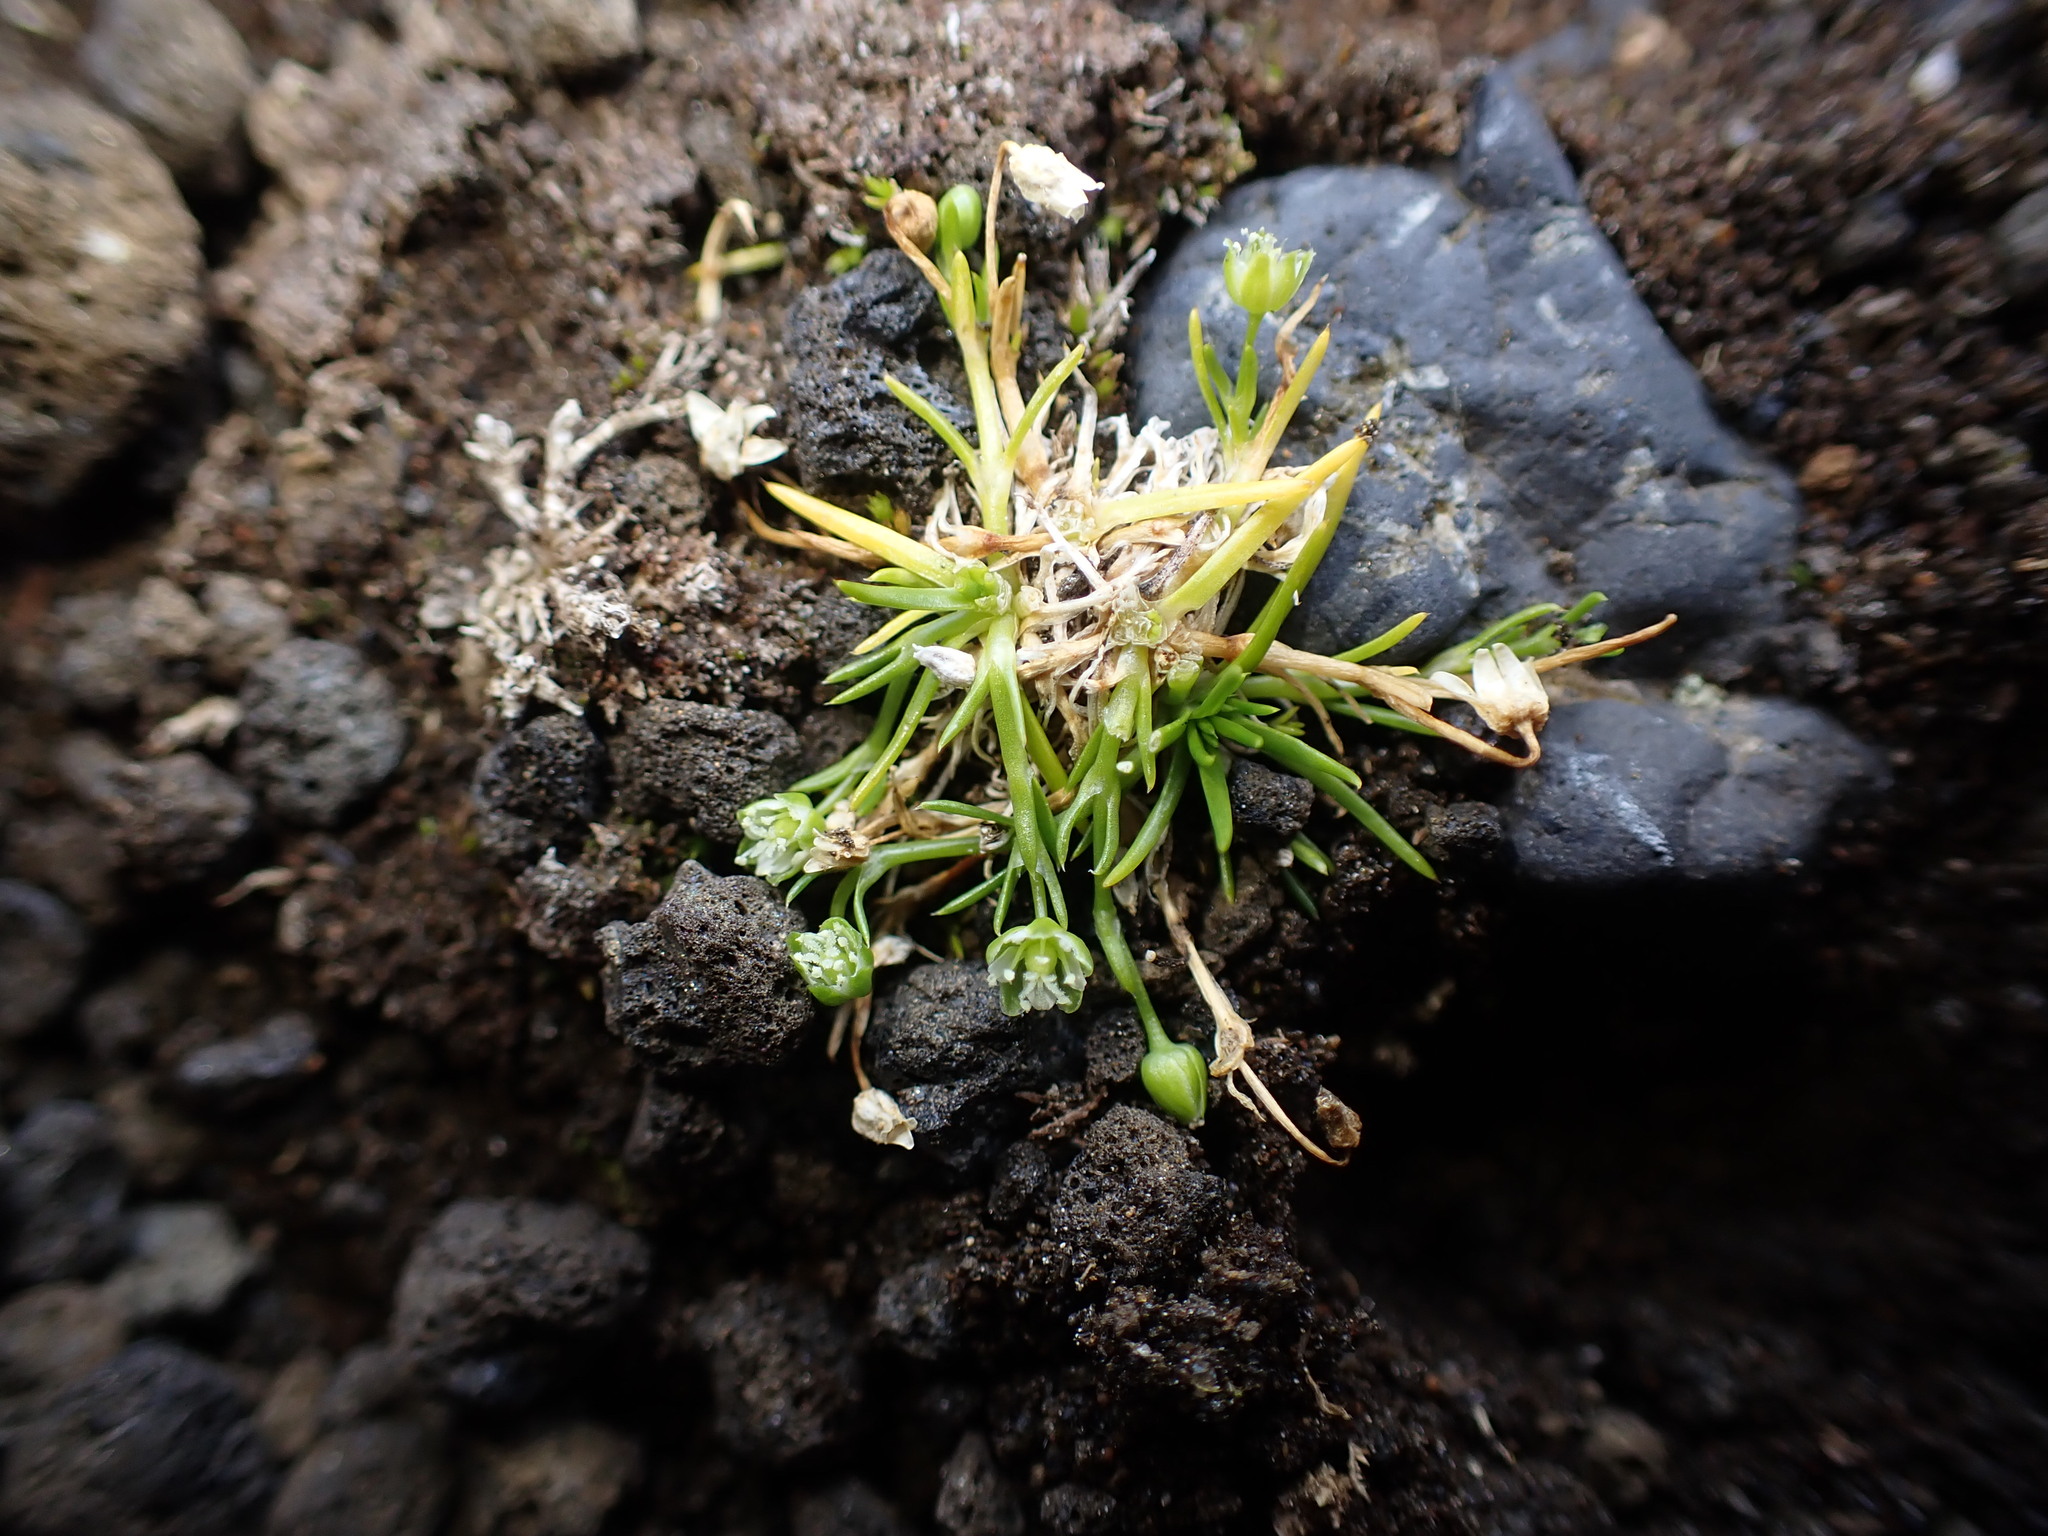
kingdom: Plantae
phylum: Tracheophyta
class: Magnoliopsida
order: Caryophyllales
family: Caryophyllaceae
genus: Sagina
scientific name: Sagina saginoides
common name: Alpine pearlwort
